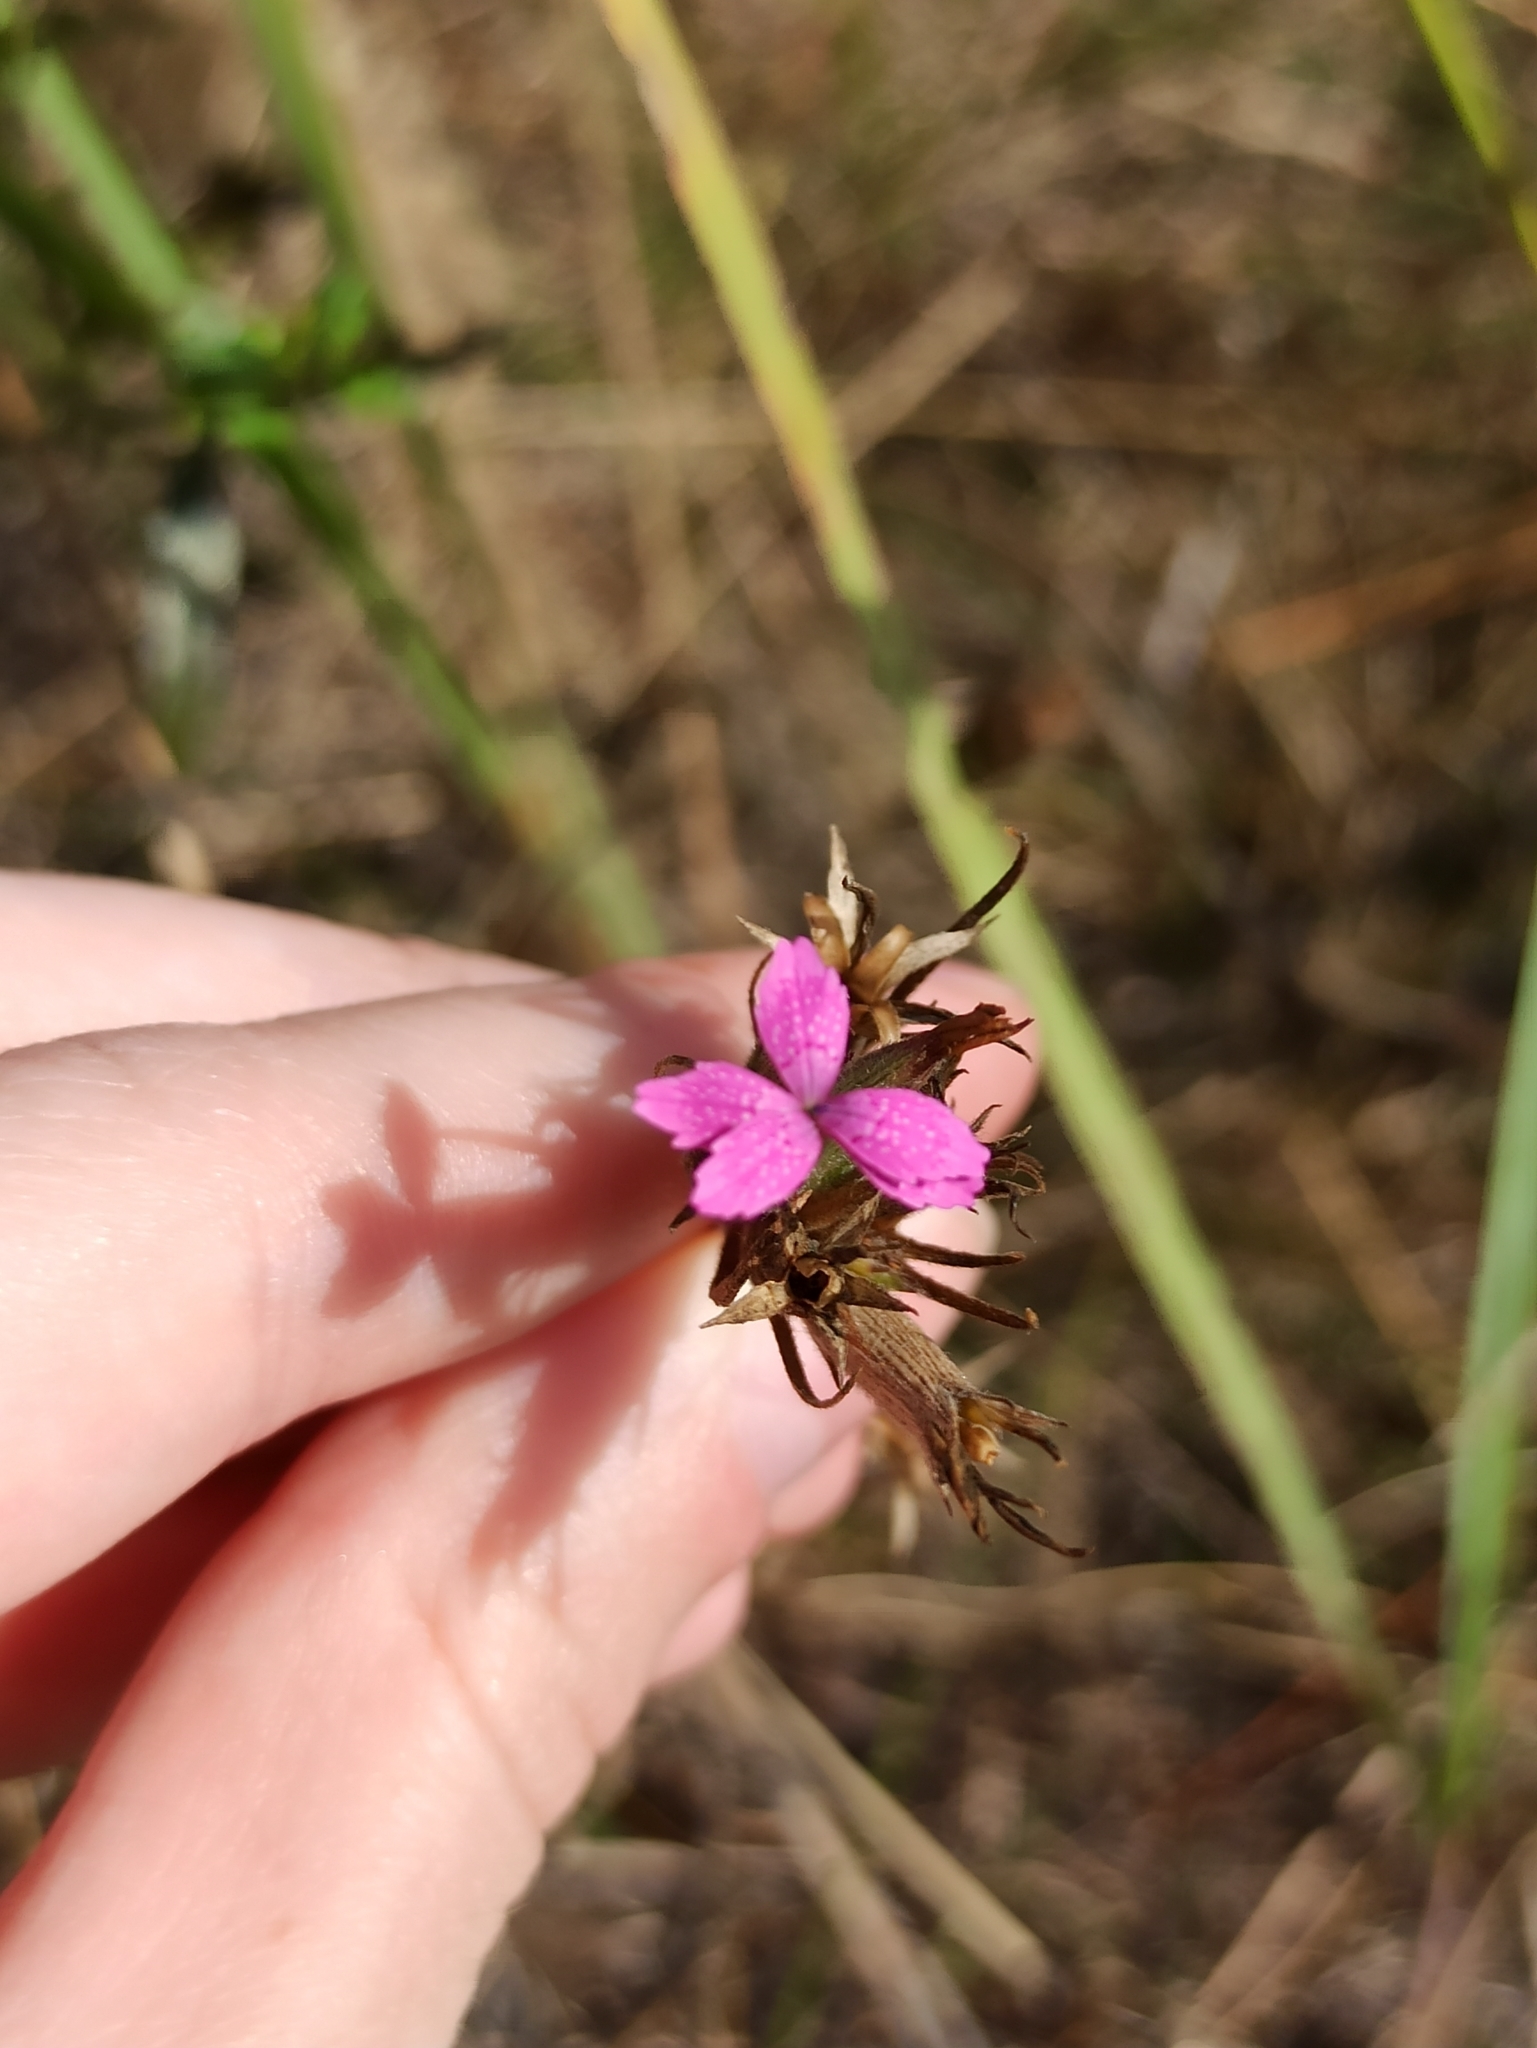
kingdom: Plantae
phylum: Tracheophyta
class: Magnoliopsida
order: Caryophyllales
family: Caryophyllaceae
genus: Dianthus
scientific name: Dianthus barbatus
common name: Sweet-william
